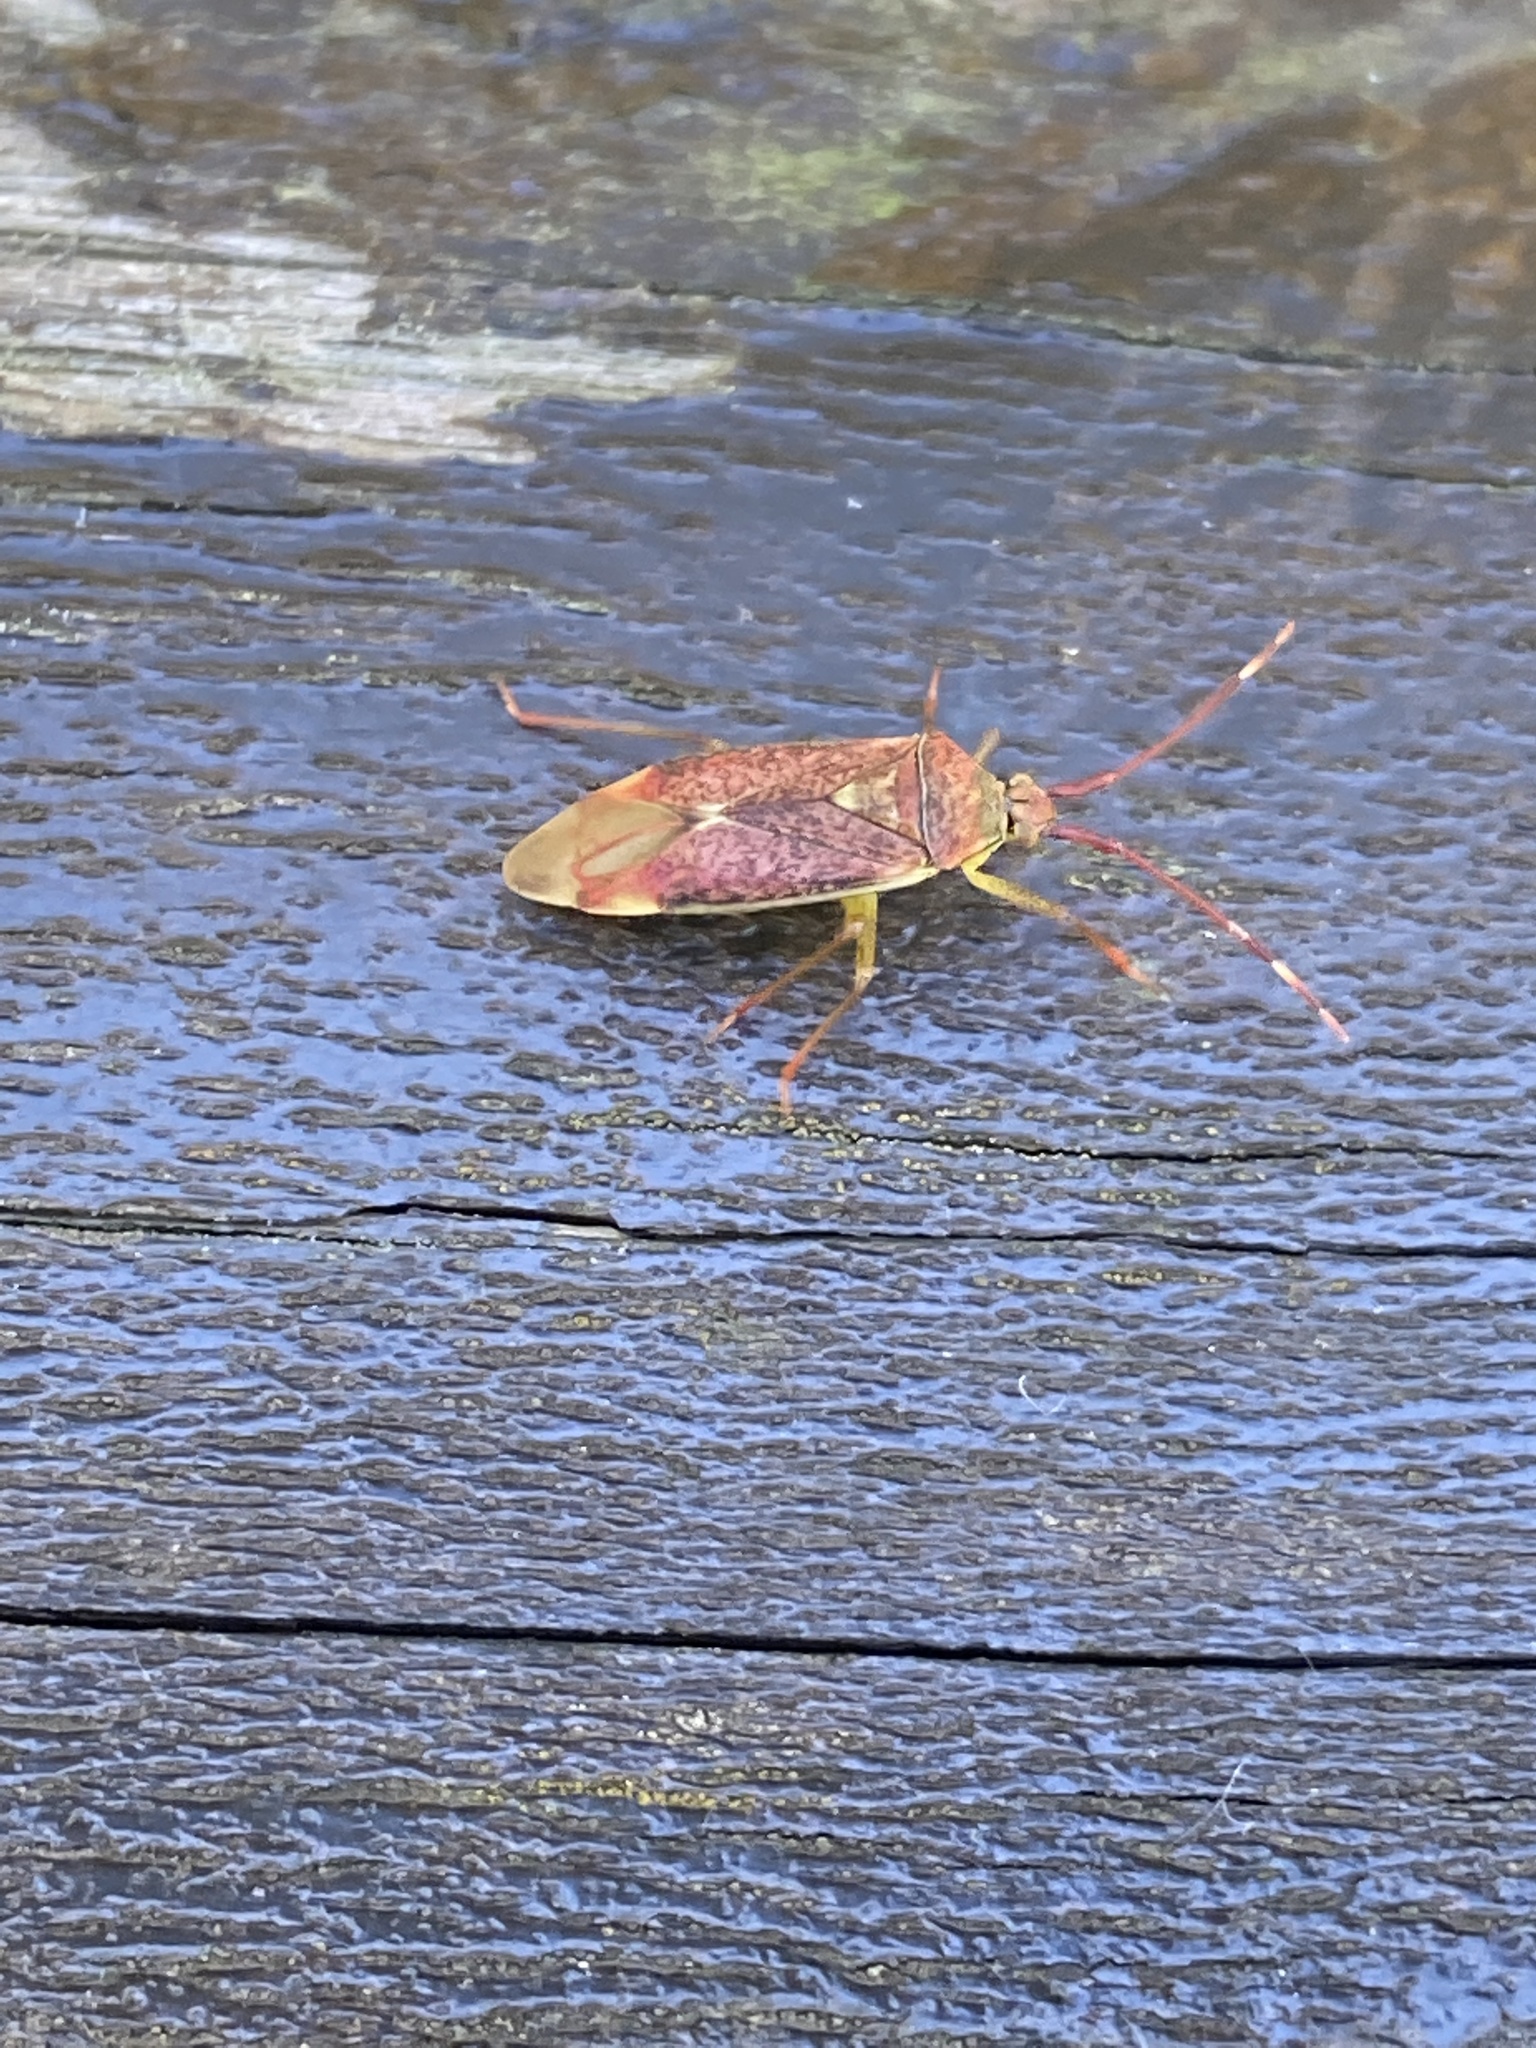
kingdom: Animalia
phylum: Arthropoda
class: Insecta
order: Hemiptera
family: Miridae
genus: Pantilius
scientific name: Pantilius tunicatus
